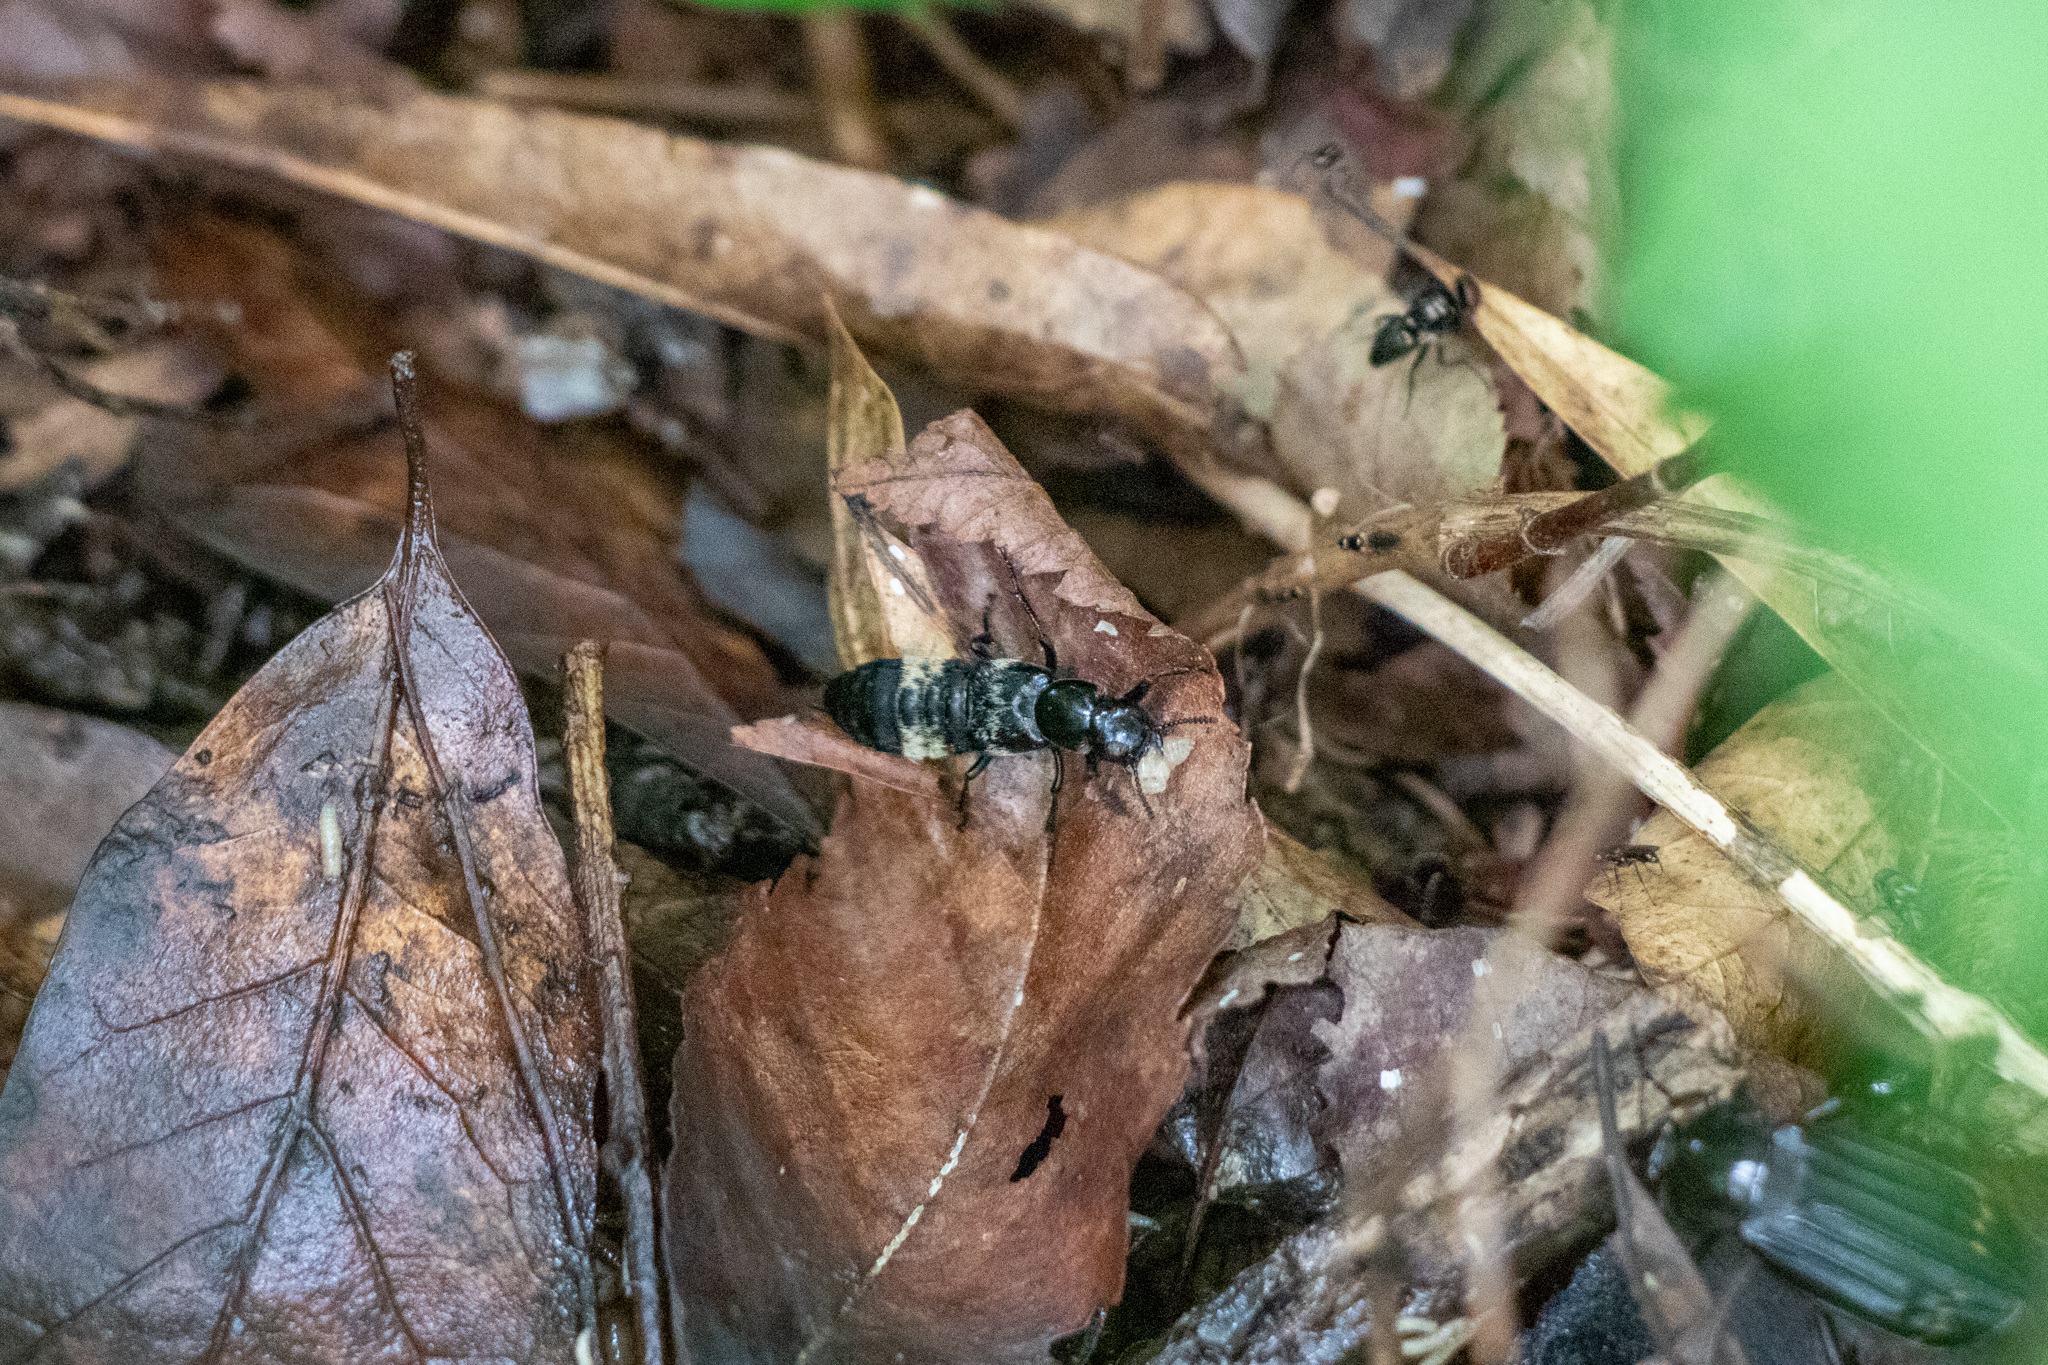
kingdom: Animalia
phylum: Arthropoda
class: Insecta
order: Coleoptera
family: Staphylinidae
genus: Creophilus
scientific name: Creophilus maxillosus
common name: Hairy rove beetle
